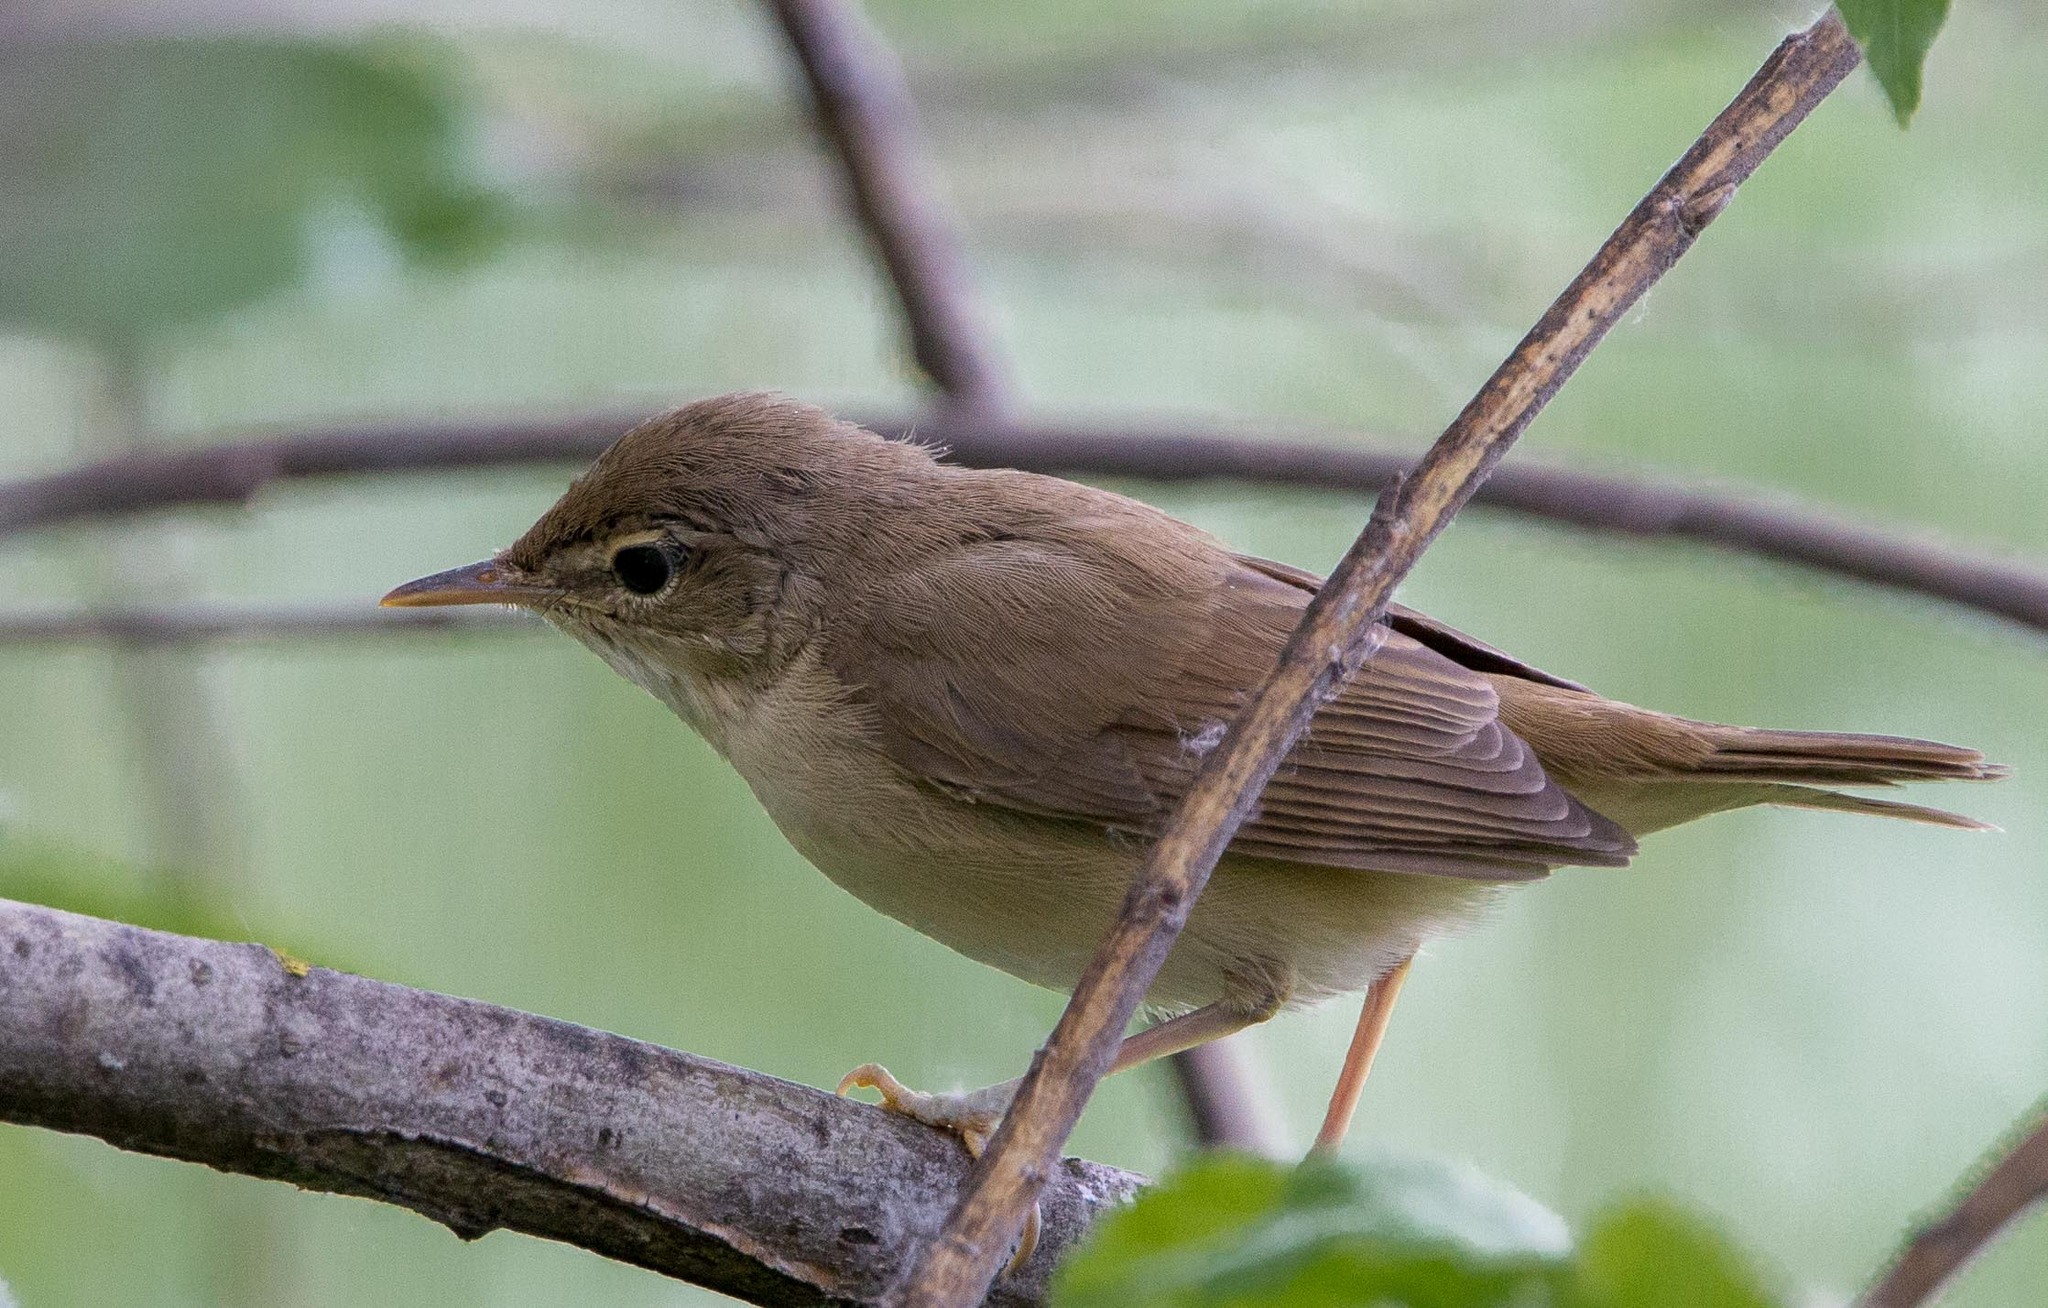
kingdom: Animalia
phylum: Chordata
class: Aves
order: Passeriformes
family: Acrocephalidae
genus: Acrocephalus
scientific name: Acrocephalus dumetorum
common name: Blyth's reed warbler
